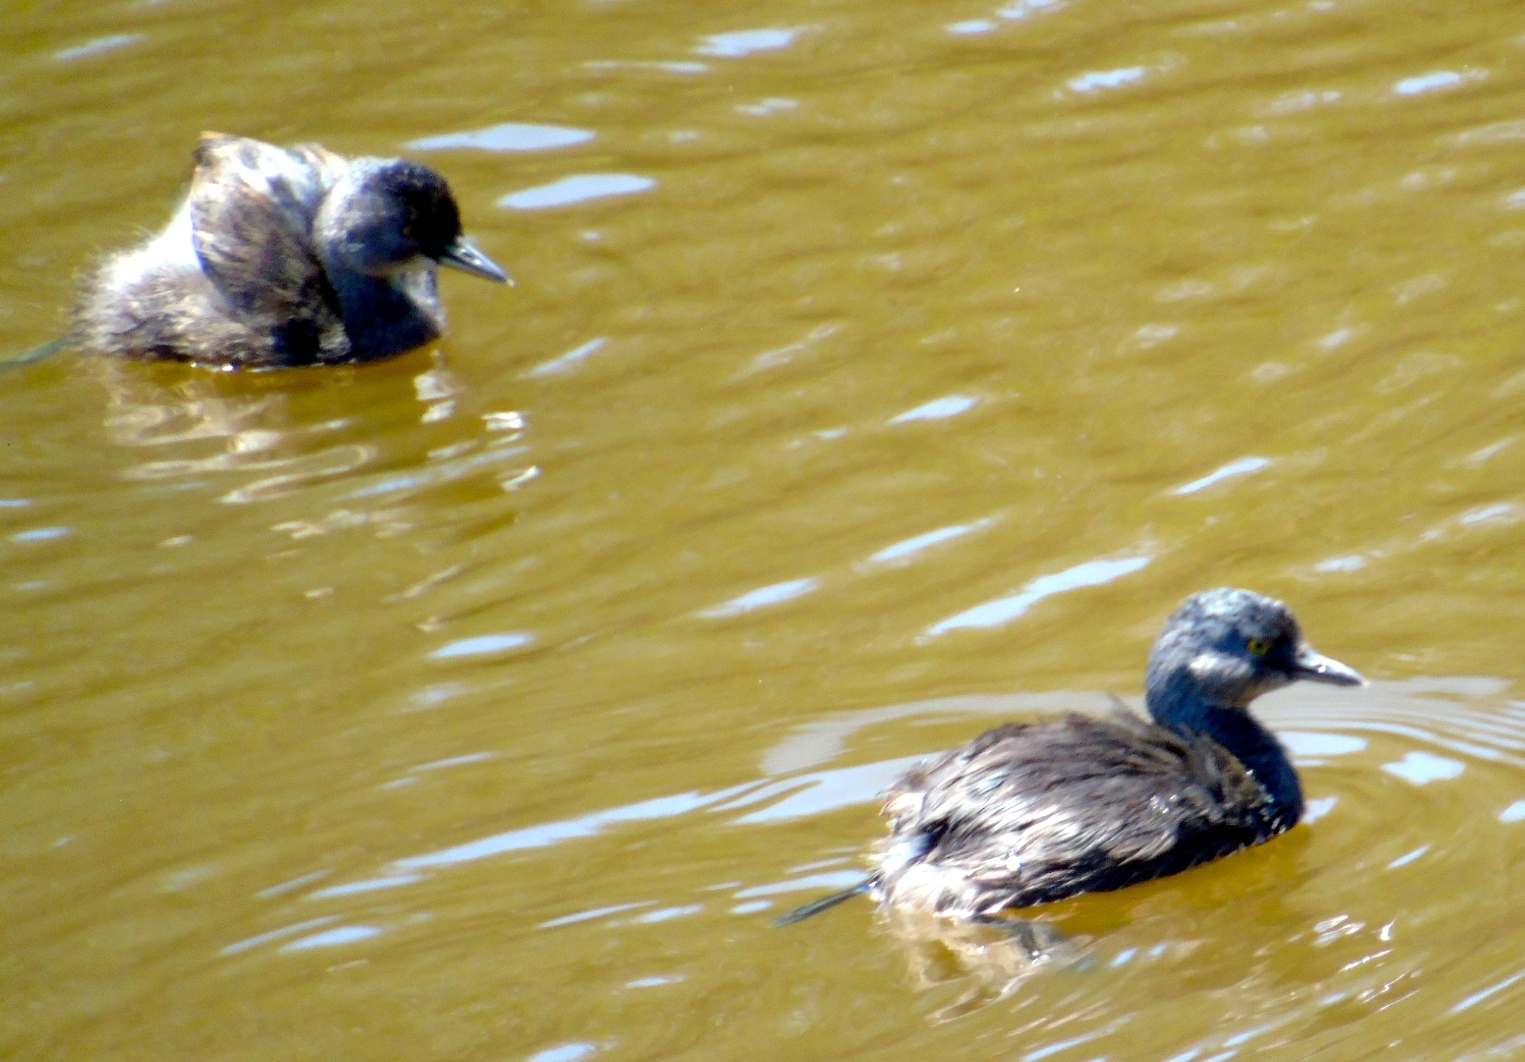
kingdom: Animalia
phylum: Chordata
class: Aves
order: Podicipediformes
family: Podicipedidae
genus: Tachybaptus
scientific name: Tachybaptus dominicus
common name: Least grebe
